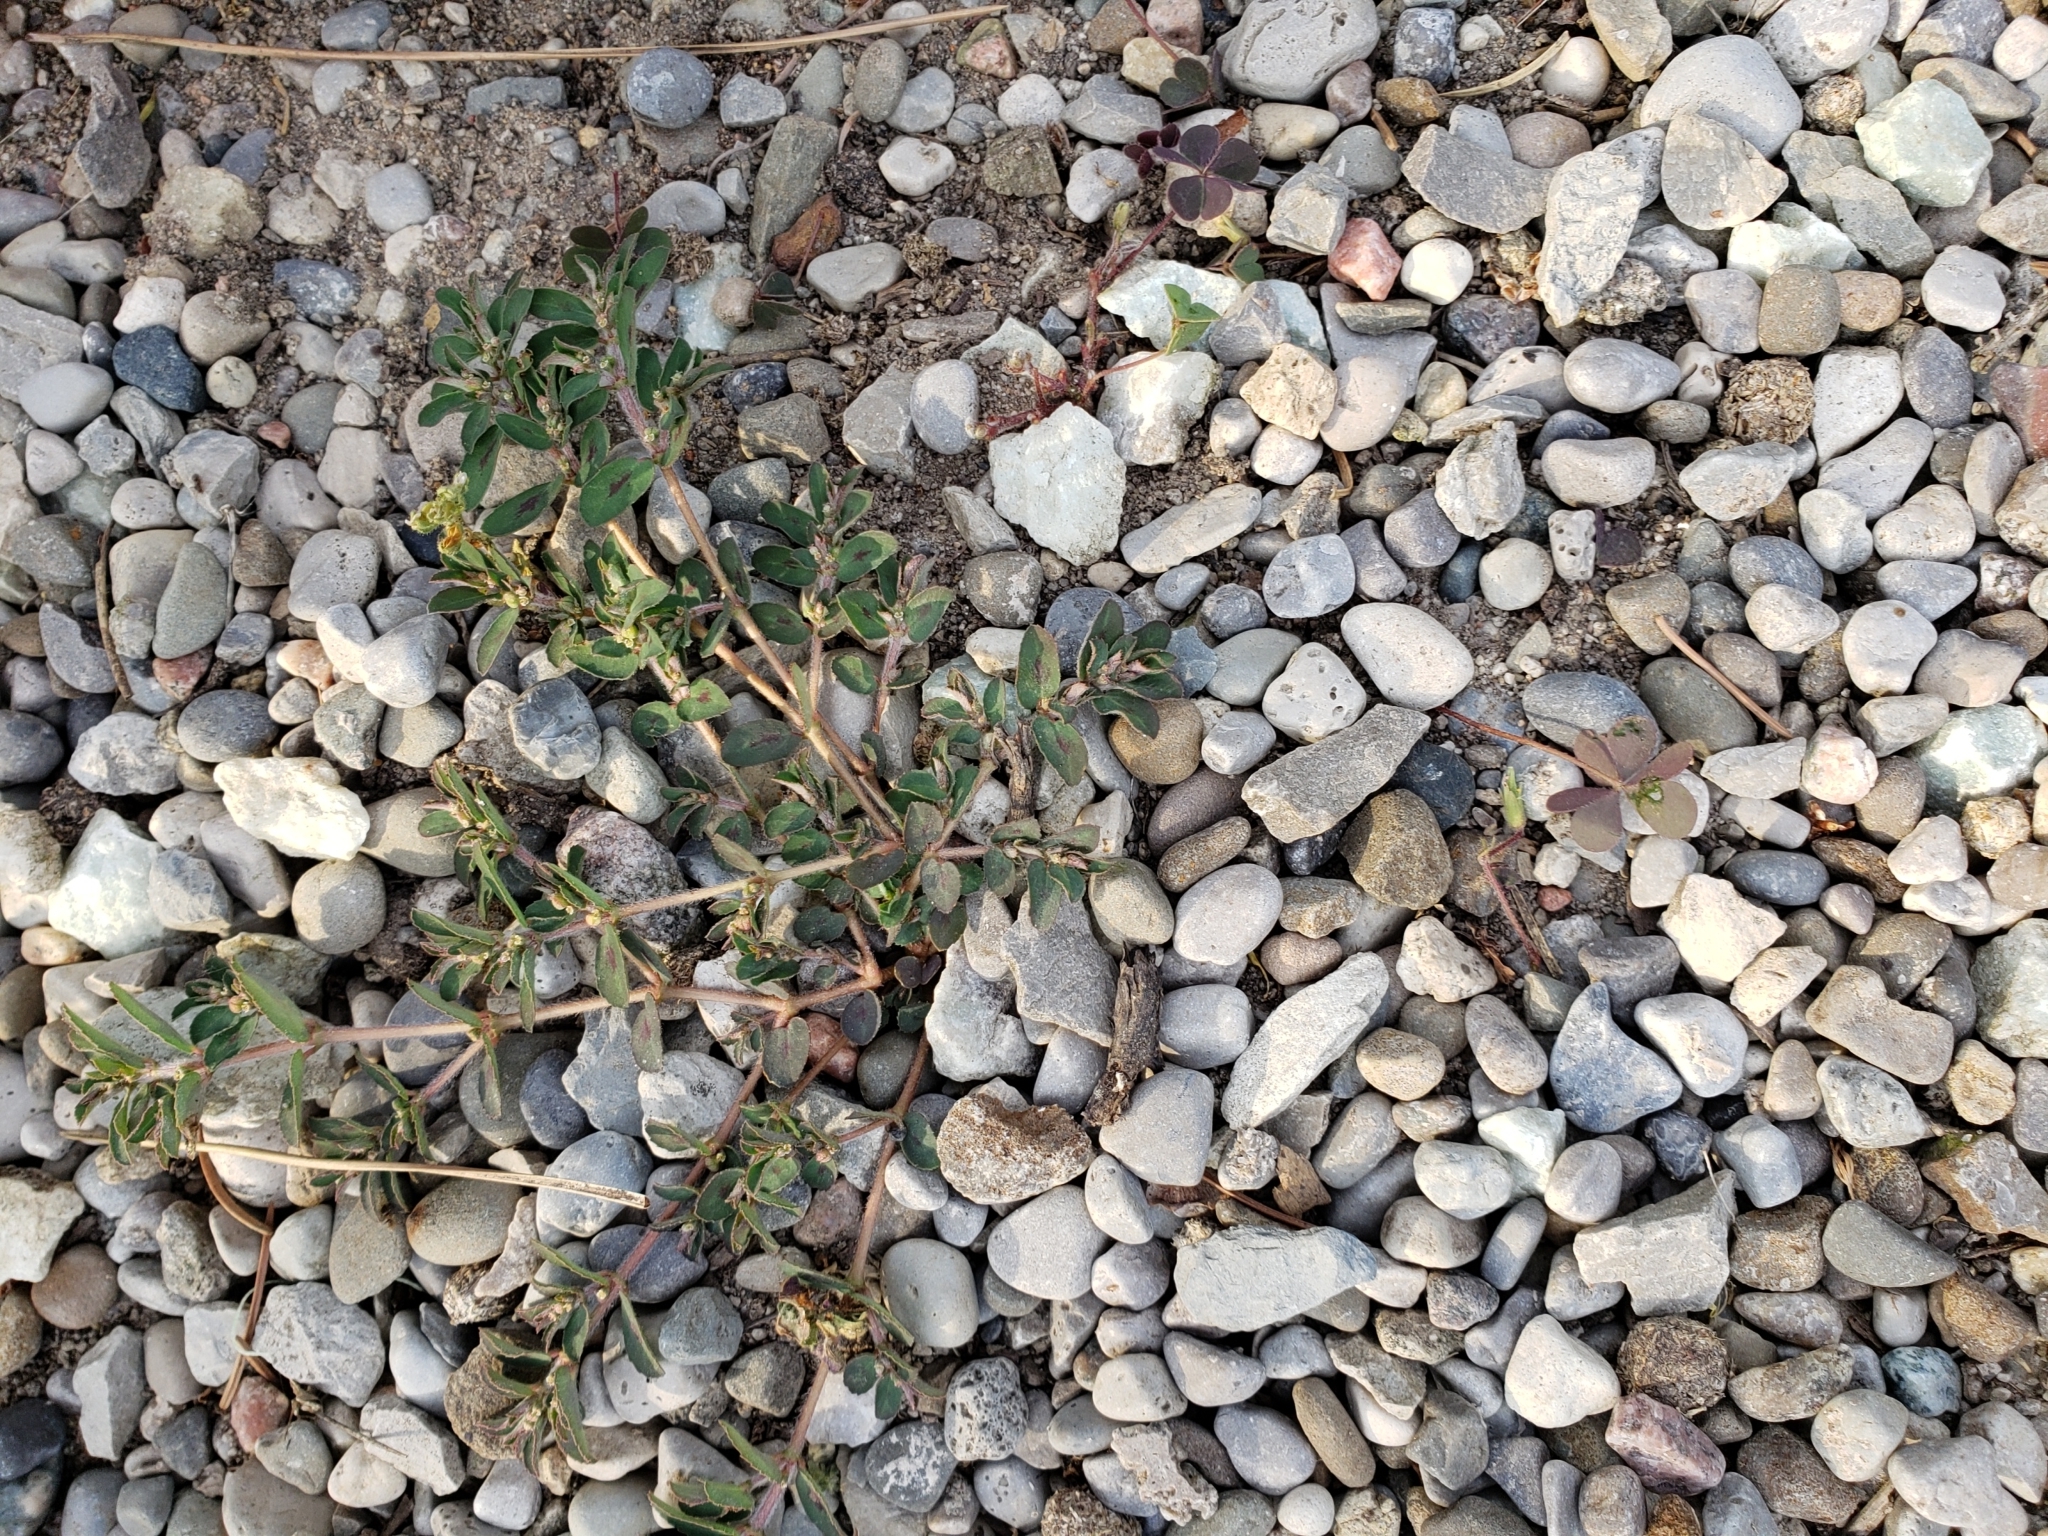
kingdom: Plantae
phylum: Tracheophyta
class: Magnoliopsida
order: Malpighiales
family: Euphorbiaceae
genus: Euphorbia
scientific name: Euphorbia maculata
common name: Spotted spurge
